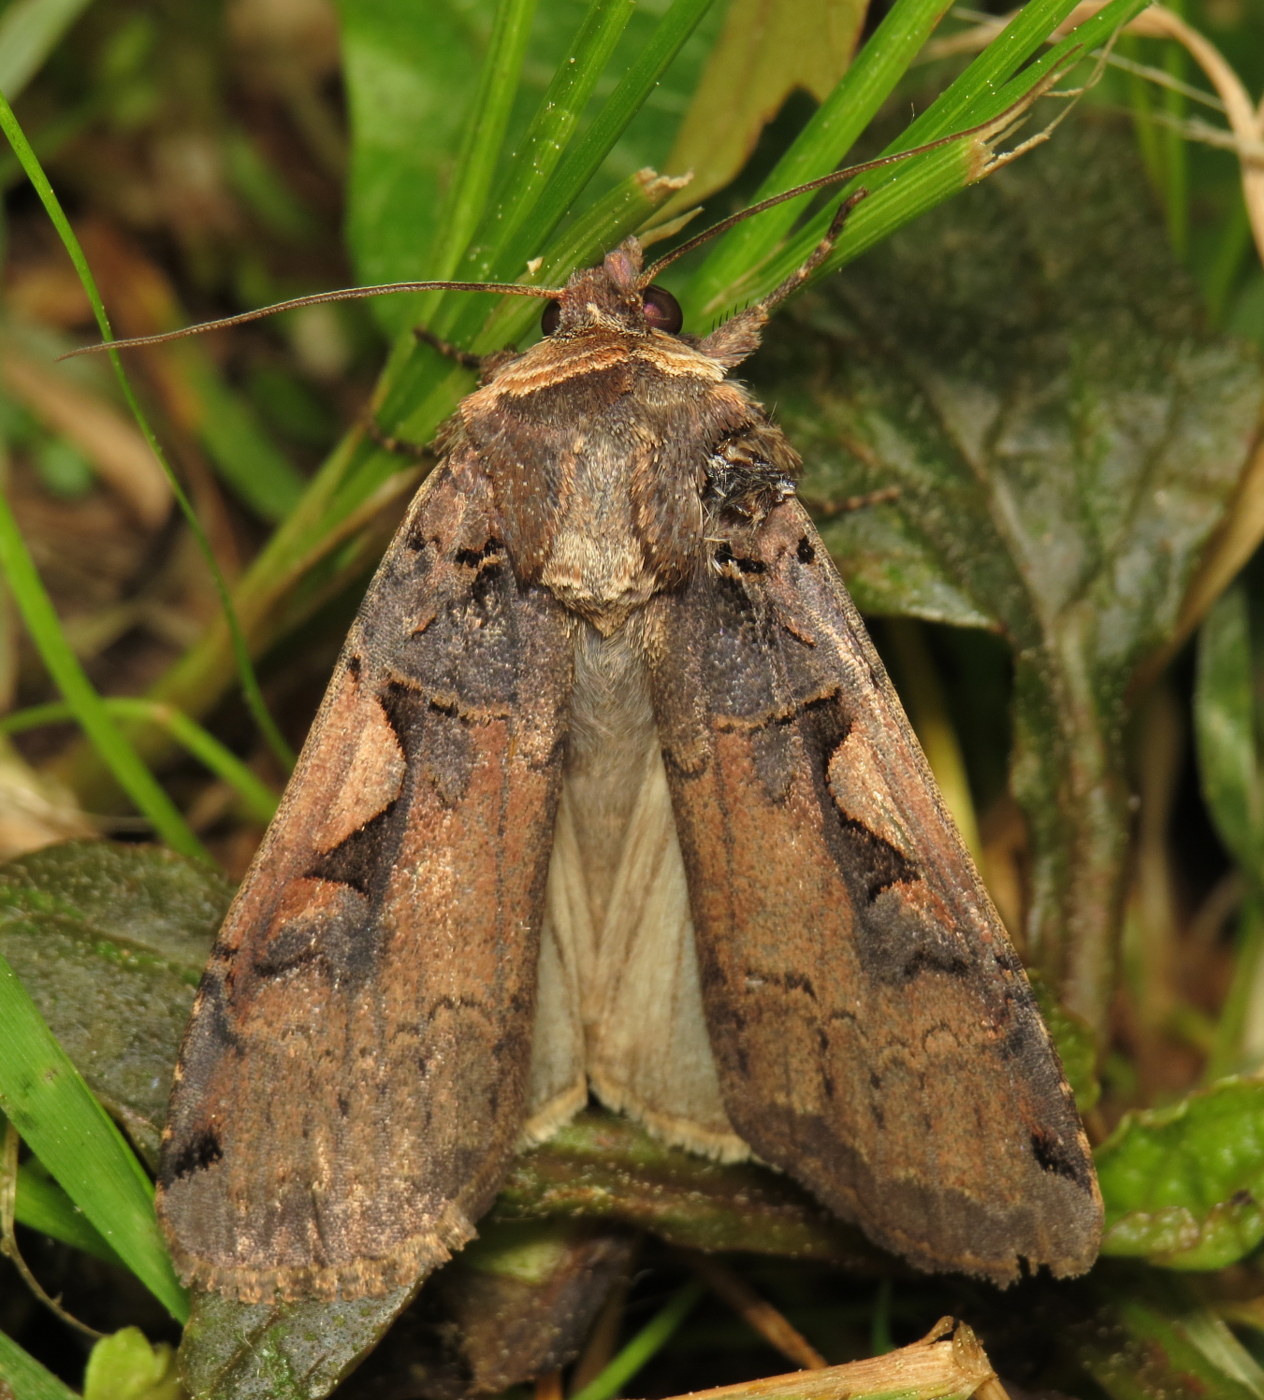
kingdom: Animalia
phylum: Arthropoda
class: Insecta
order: Lepidoptera
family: Noctuidae
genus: Xestia
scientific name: Xestia dolosa
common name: Cutworm moth
